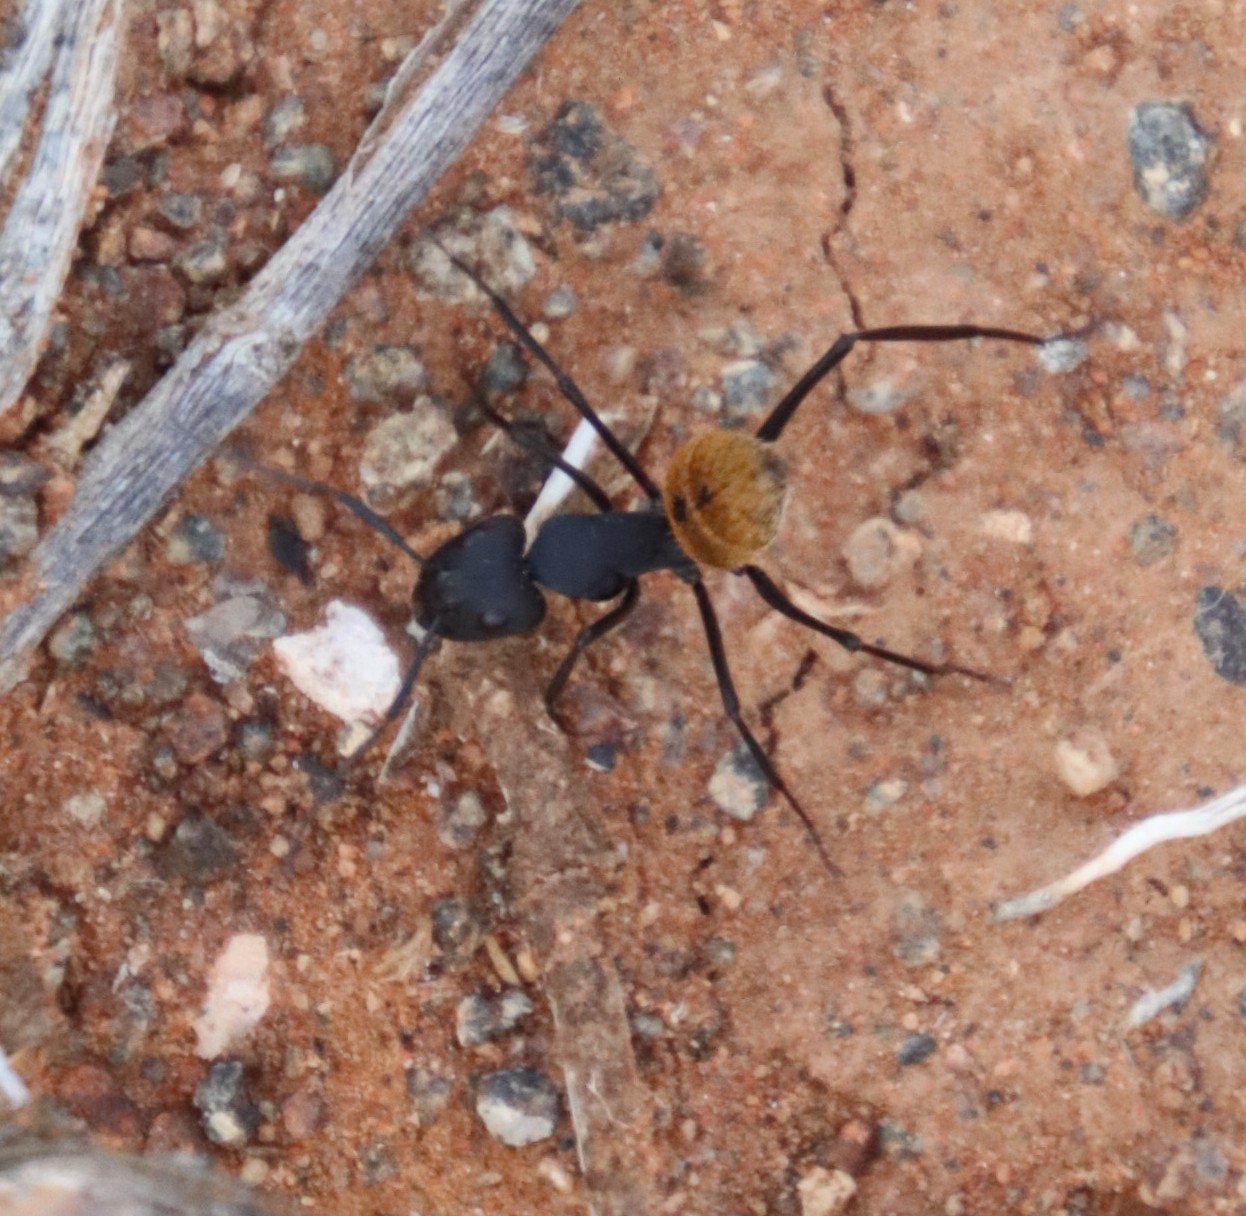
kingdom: Animalia
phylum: Arthropoda
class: Insecta
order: Hymenoptera
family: Formicidae
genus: Camponotus
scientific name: Camponotus fulvopilosus
